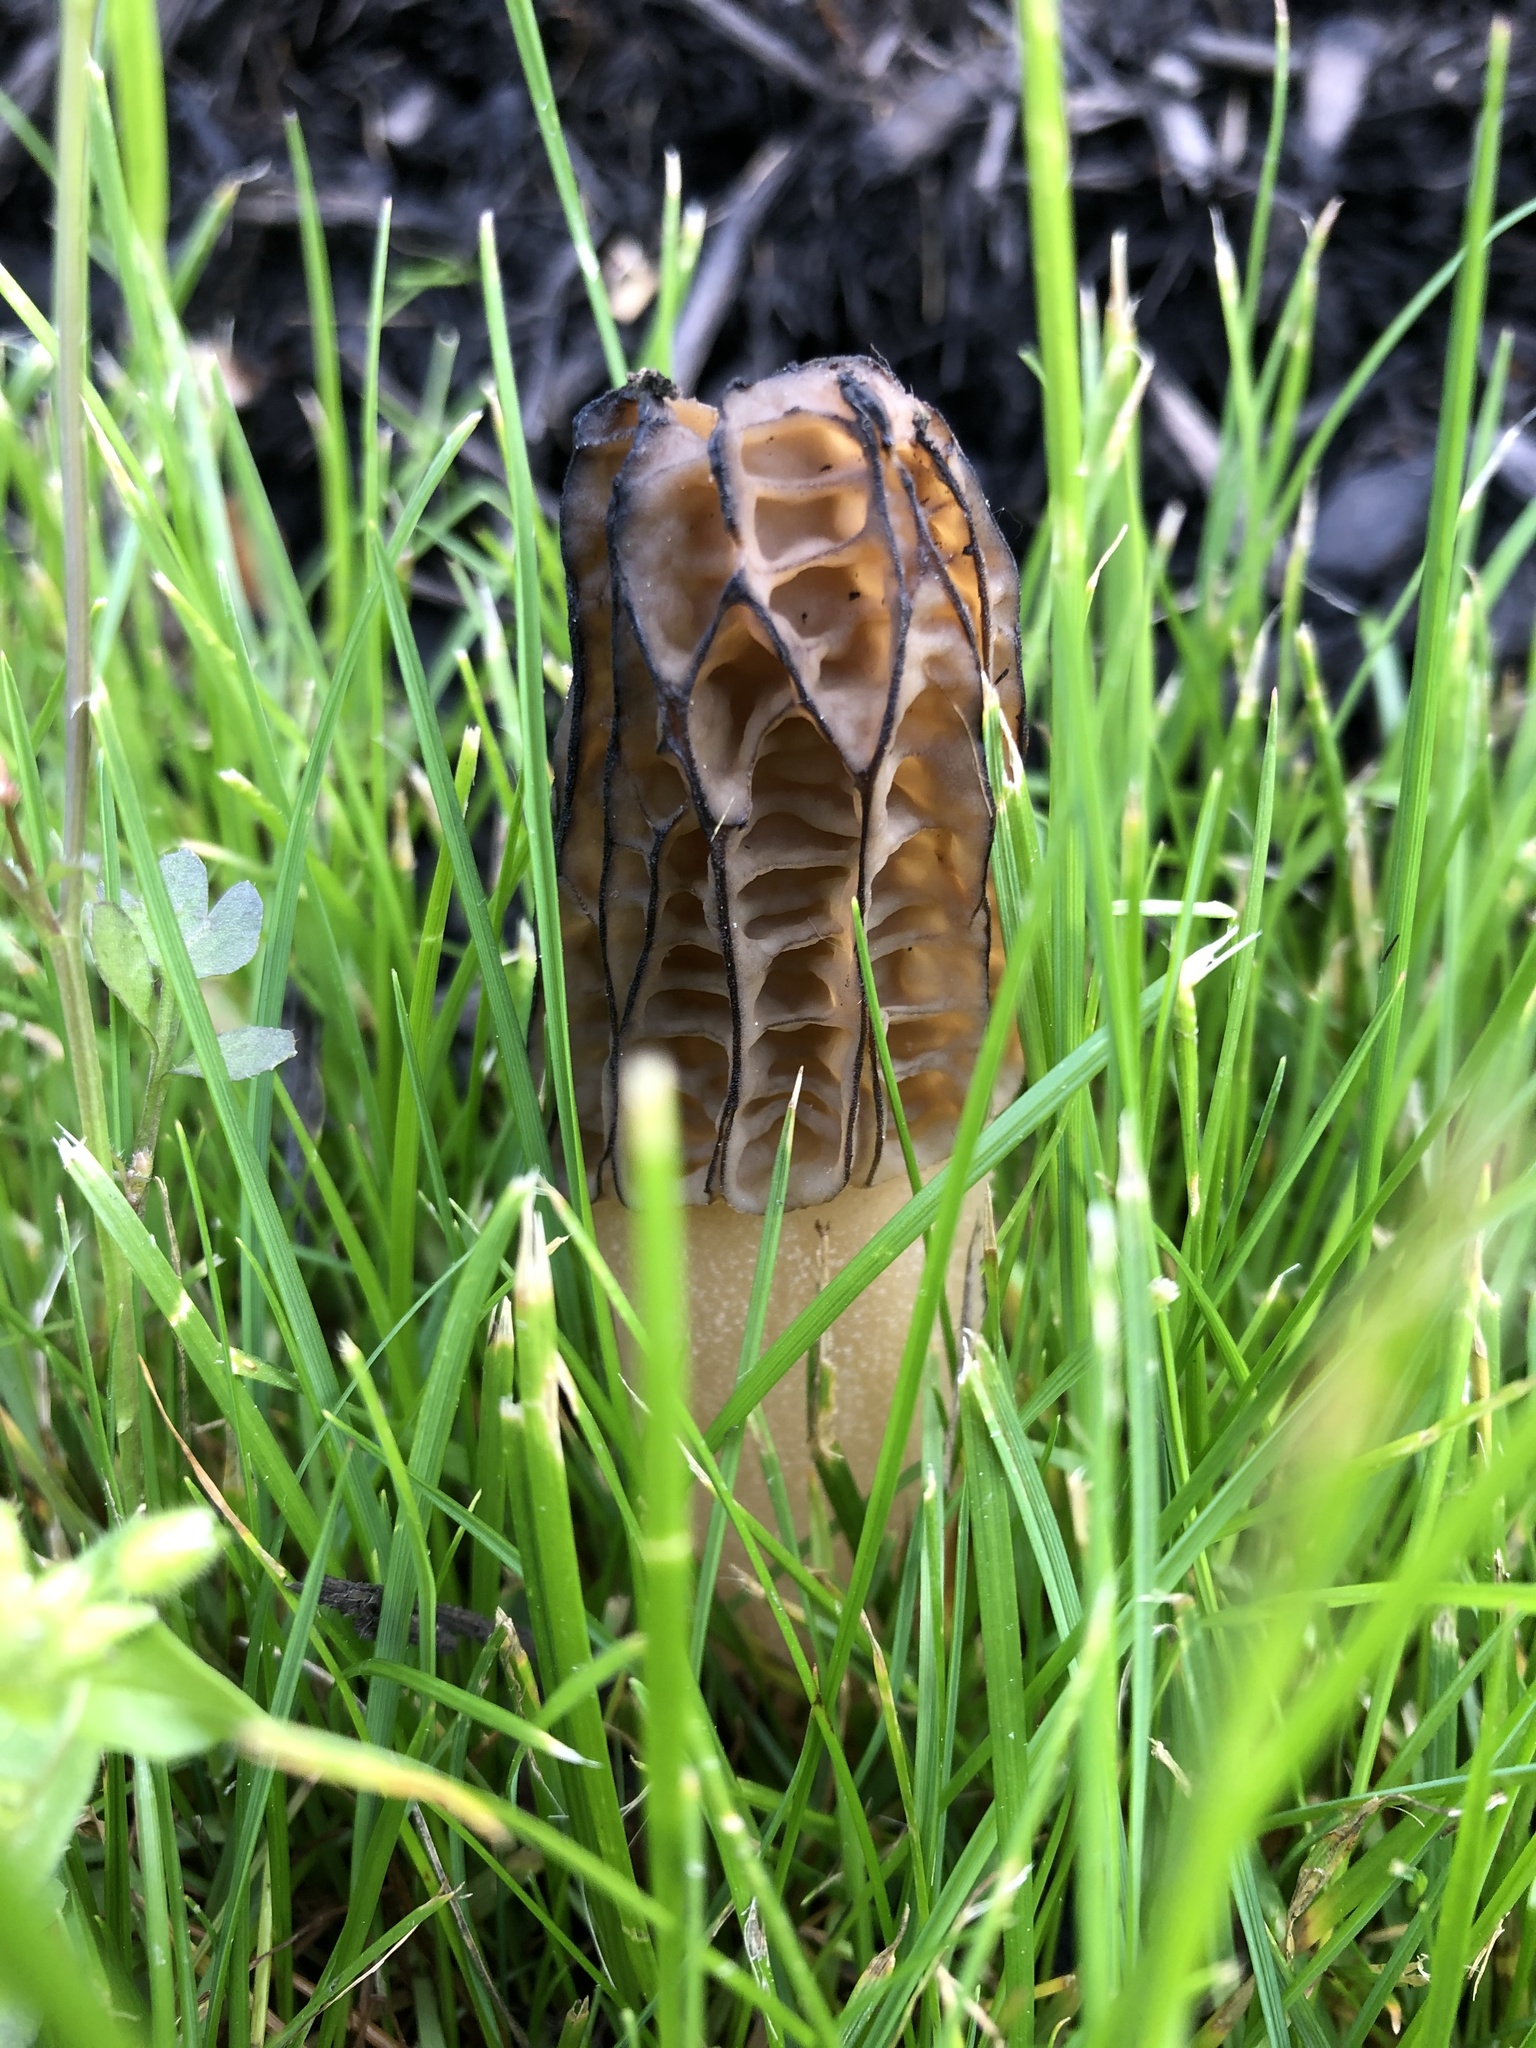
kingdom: Fungi
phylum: Ascomycota
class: Pezizomycetes
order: Pezizales
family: Morchellaceae
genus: Morchella
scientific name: Morchella importuna
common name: Landscaping black morel
